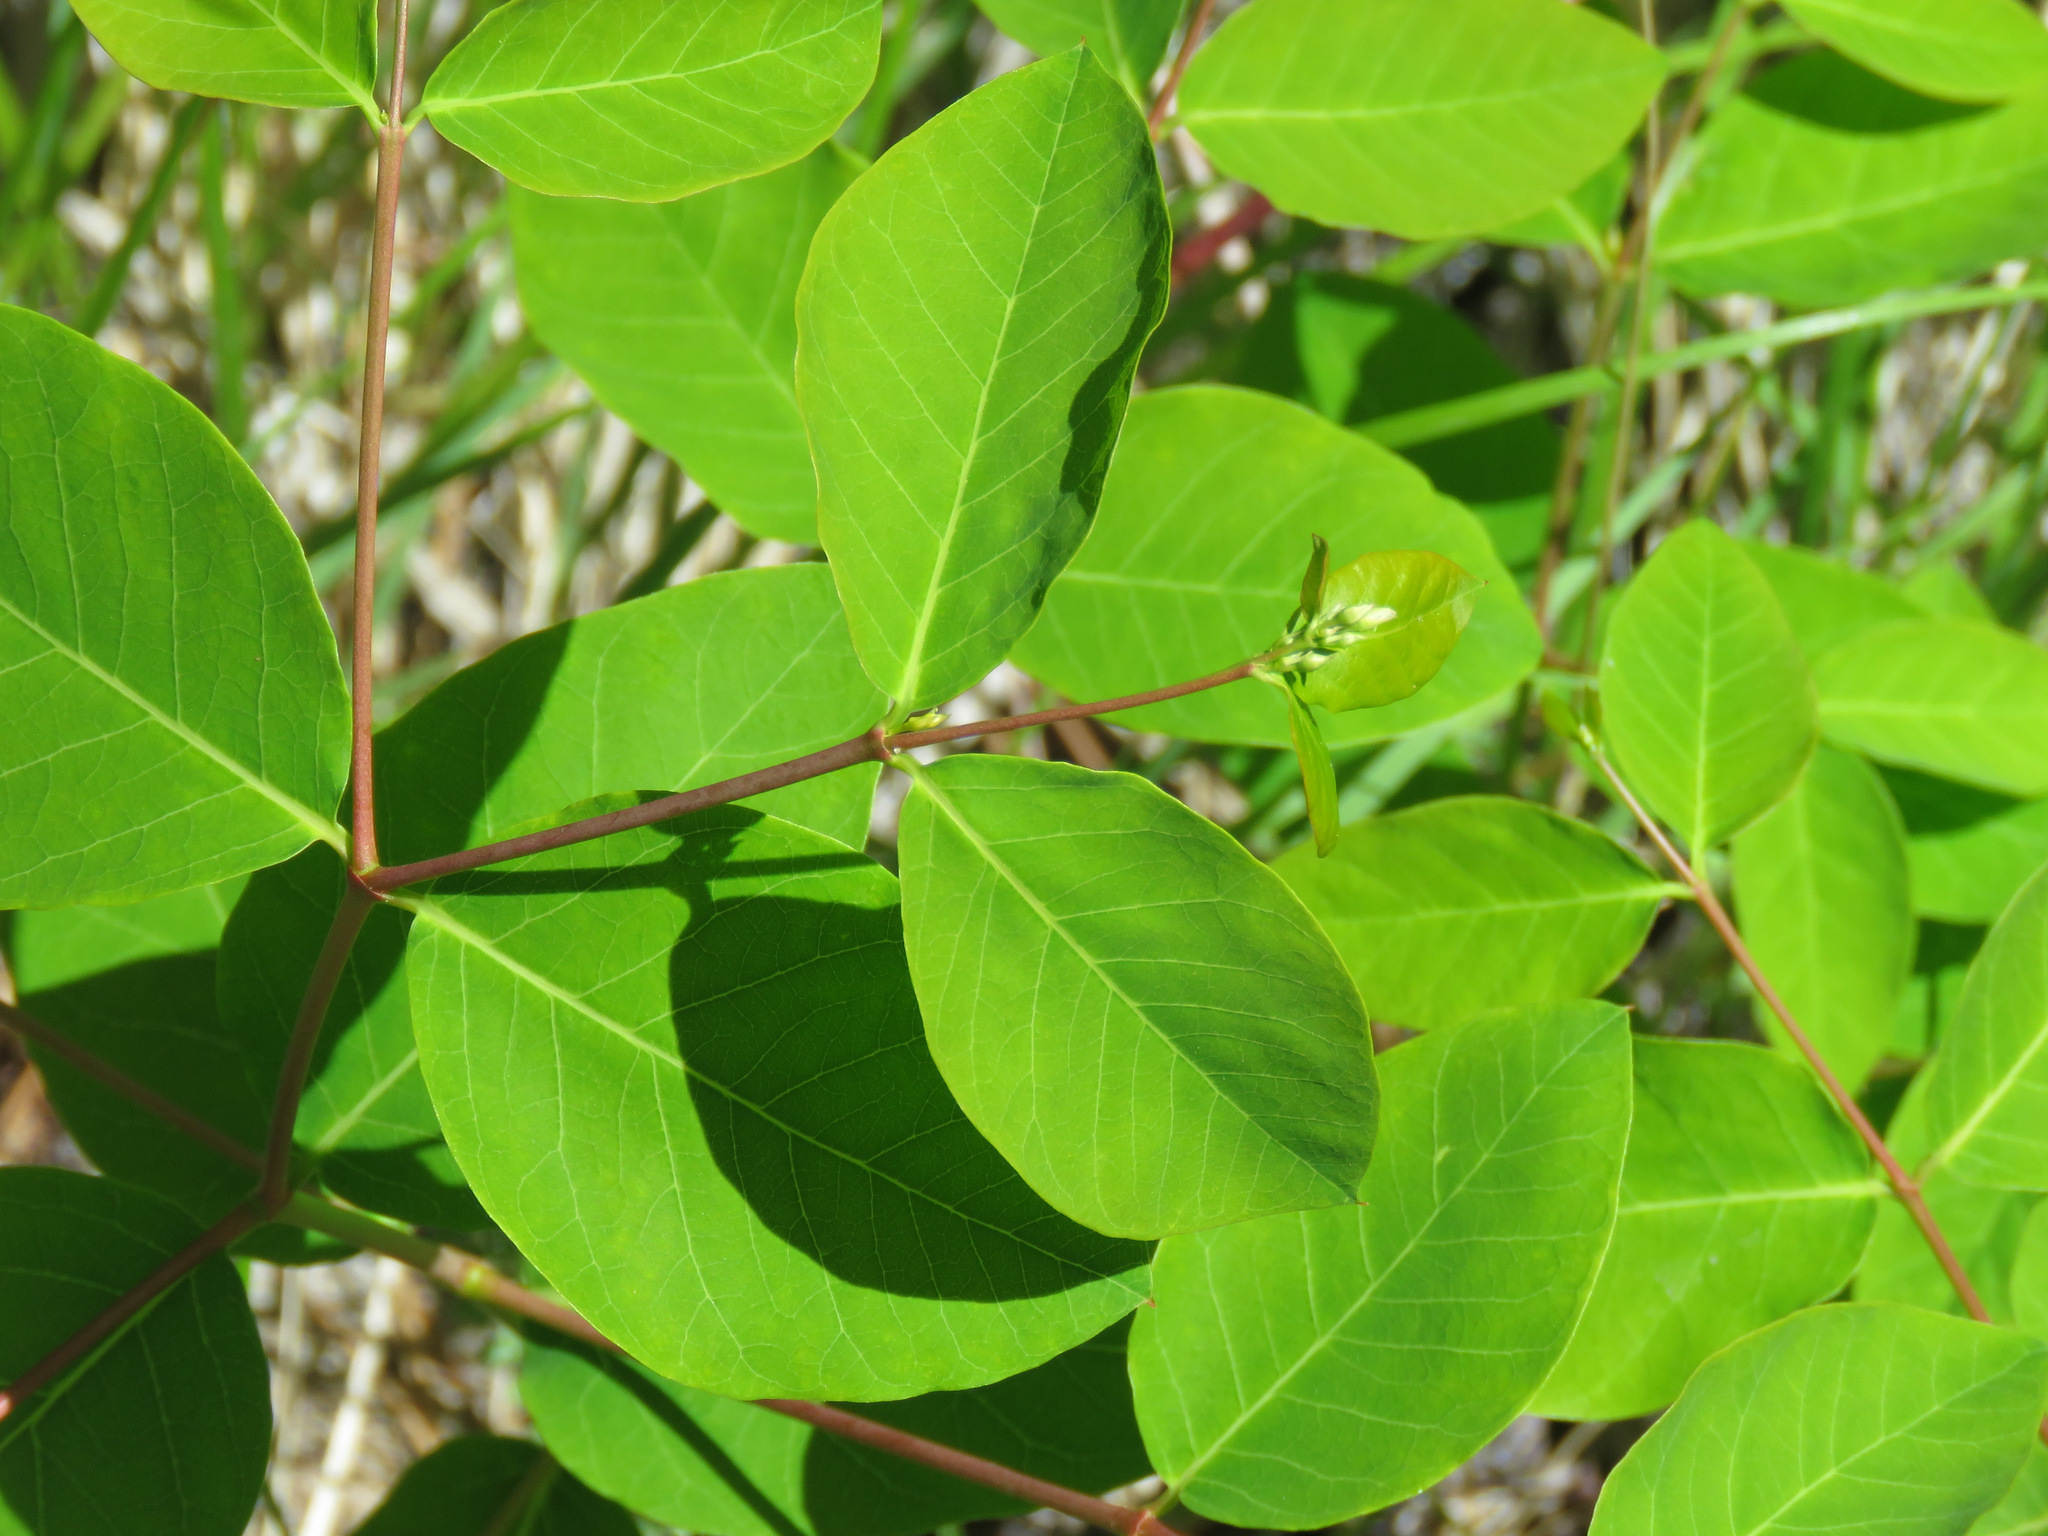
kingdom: Plantae
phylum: Tracheophyta
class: Magnoliopsida
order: Gentianales
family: Apocynaceae
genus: Apocynum
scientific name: Apocynum androsaemifolium
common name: Spreading dogbane
